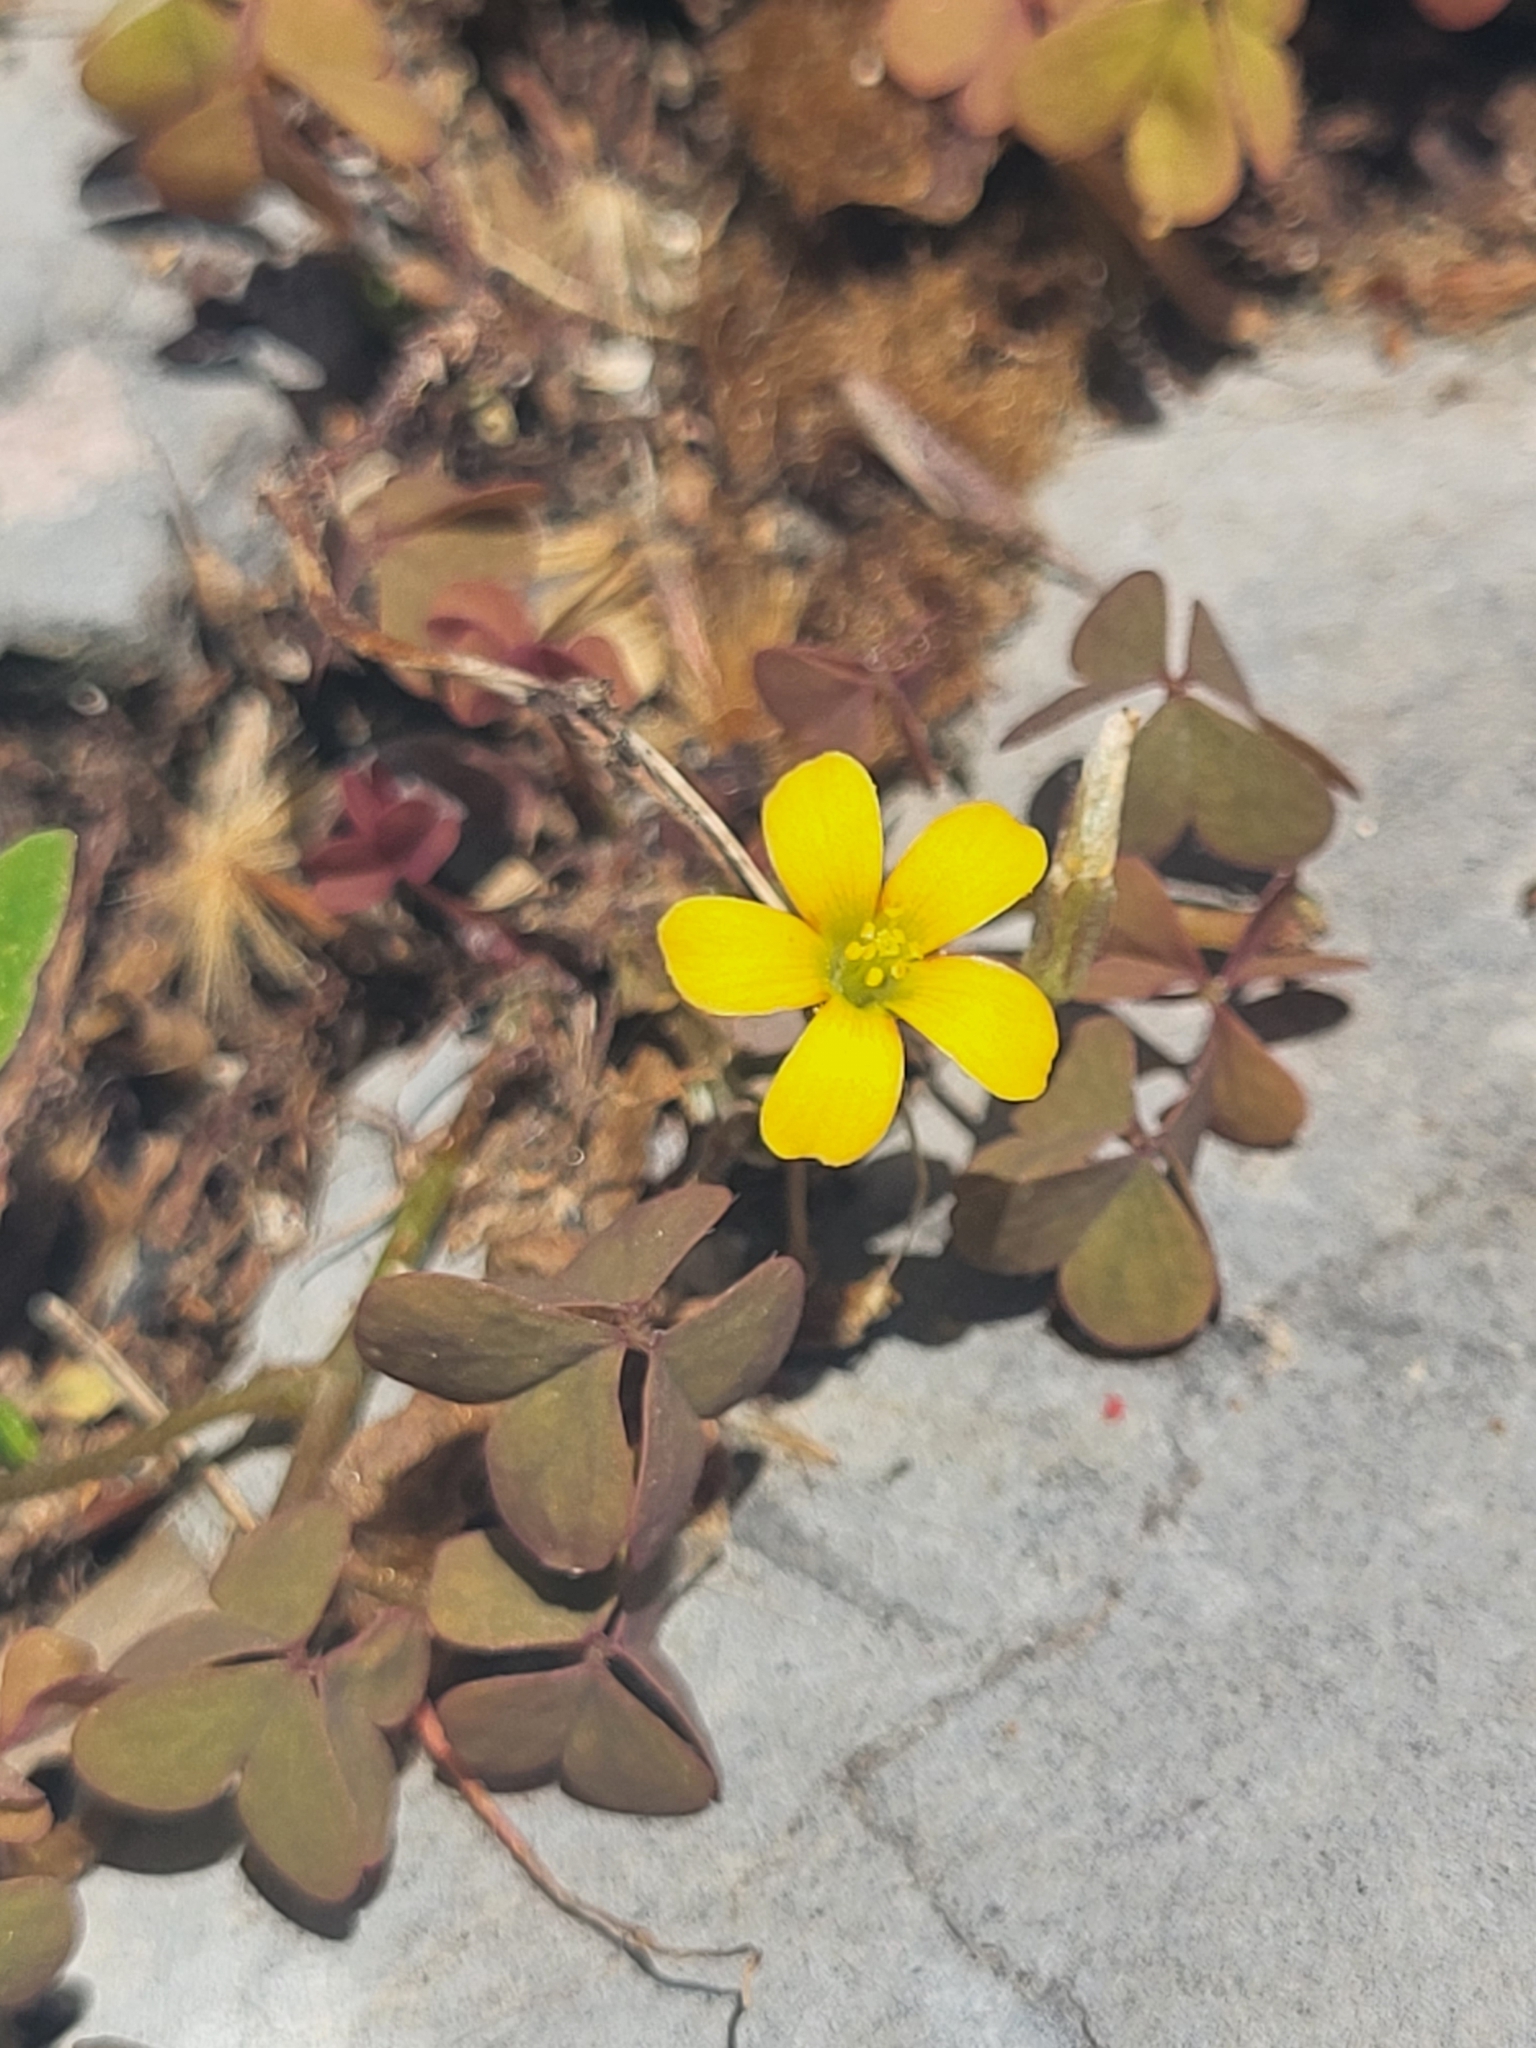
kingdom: Plantae
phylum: Tracheophyta
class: Magnoliopsida
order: Oxalidales
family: Oxalidaceae
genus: Oxalis
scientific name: Oxalis corniculata
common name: Procumbent yellow-sorrel
